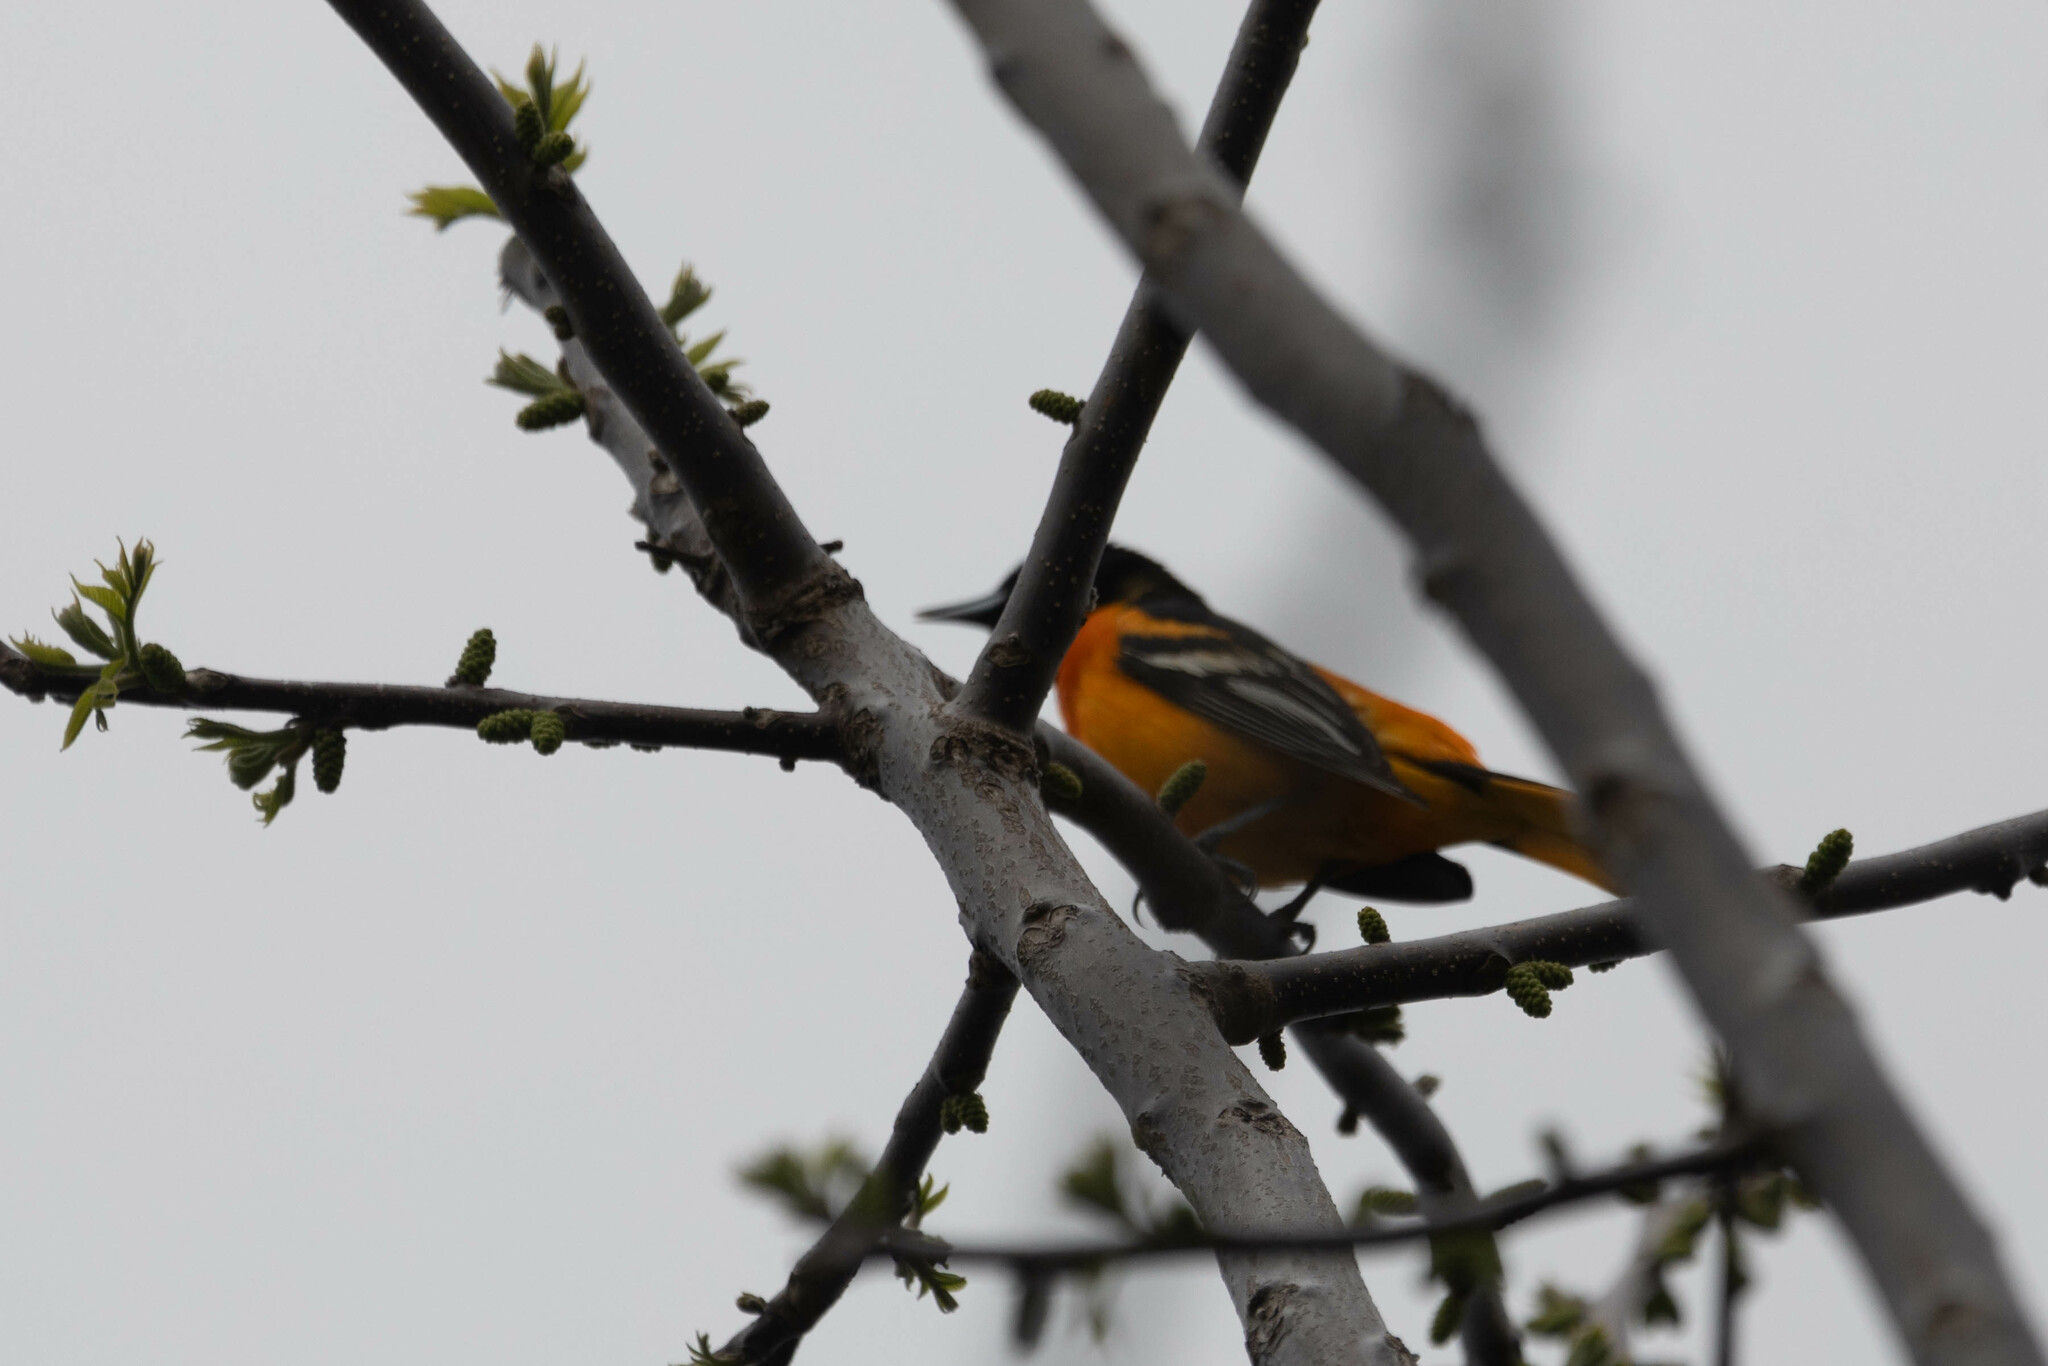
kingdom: Animalia
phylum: Chordata
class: Aves
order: Passeriformes
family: Icteridae
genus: Icterus
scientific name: Icterus galbula
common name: Baltimore oriole
